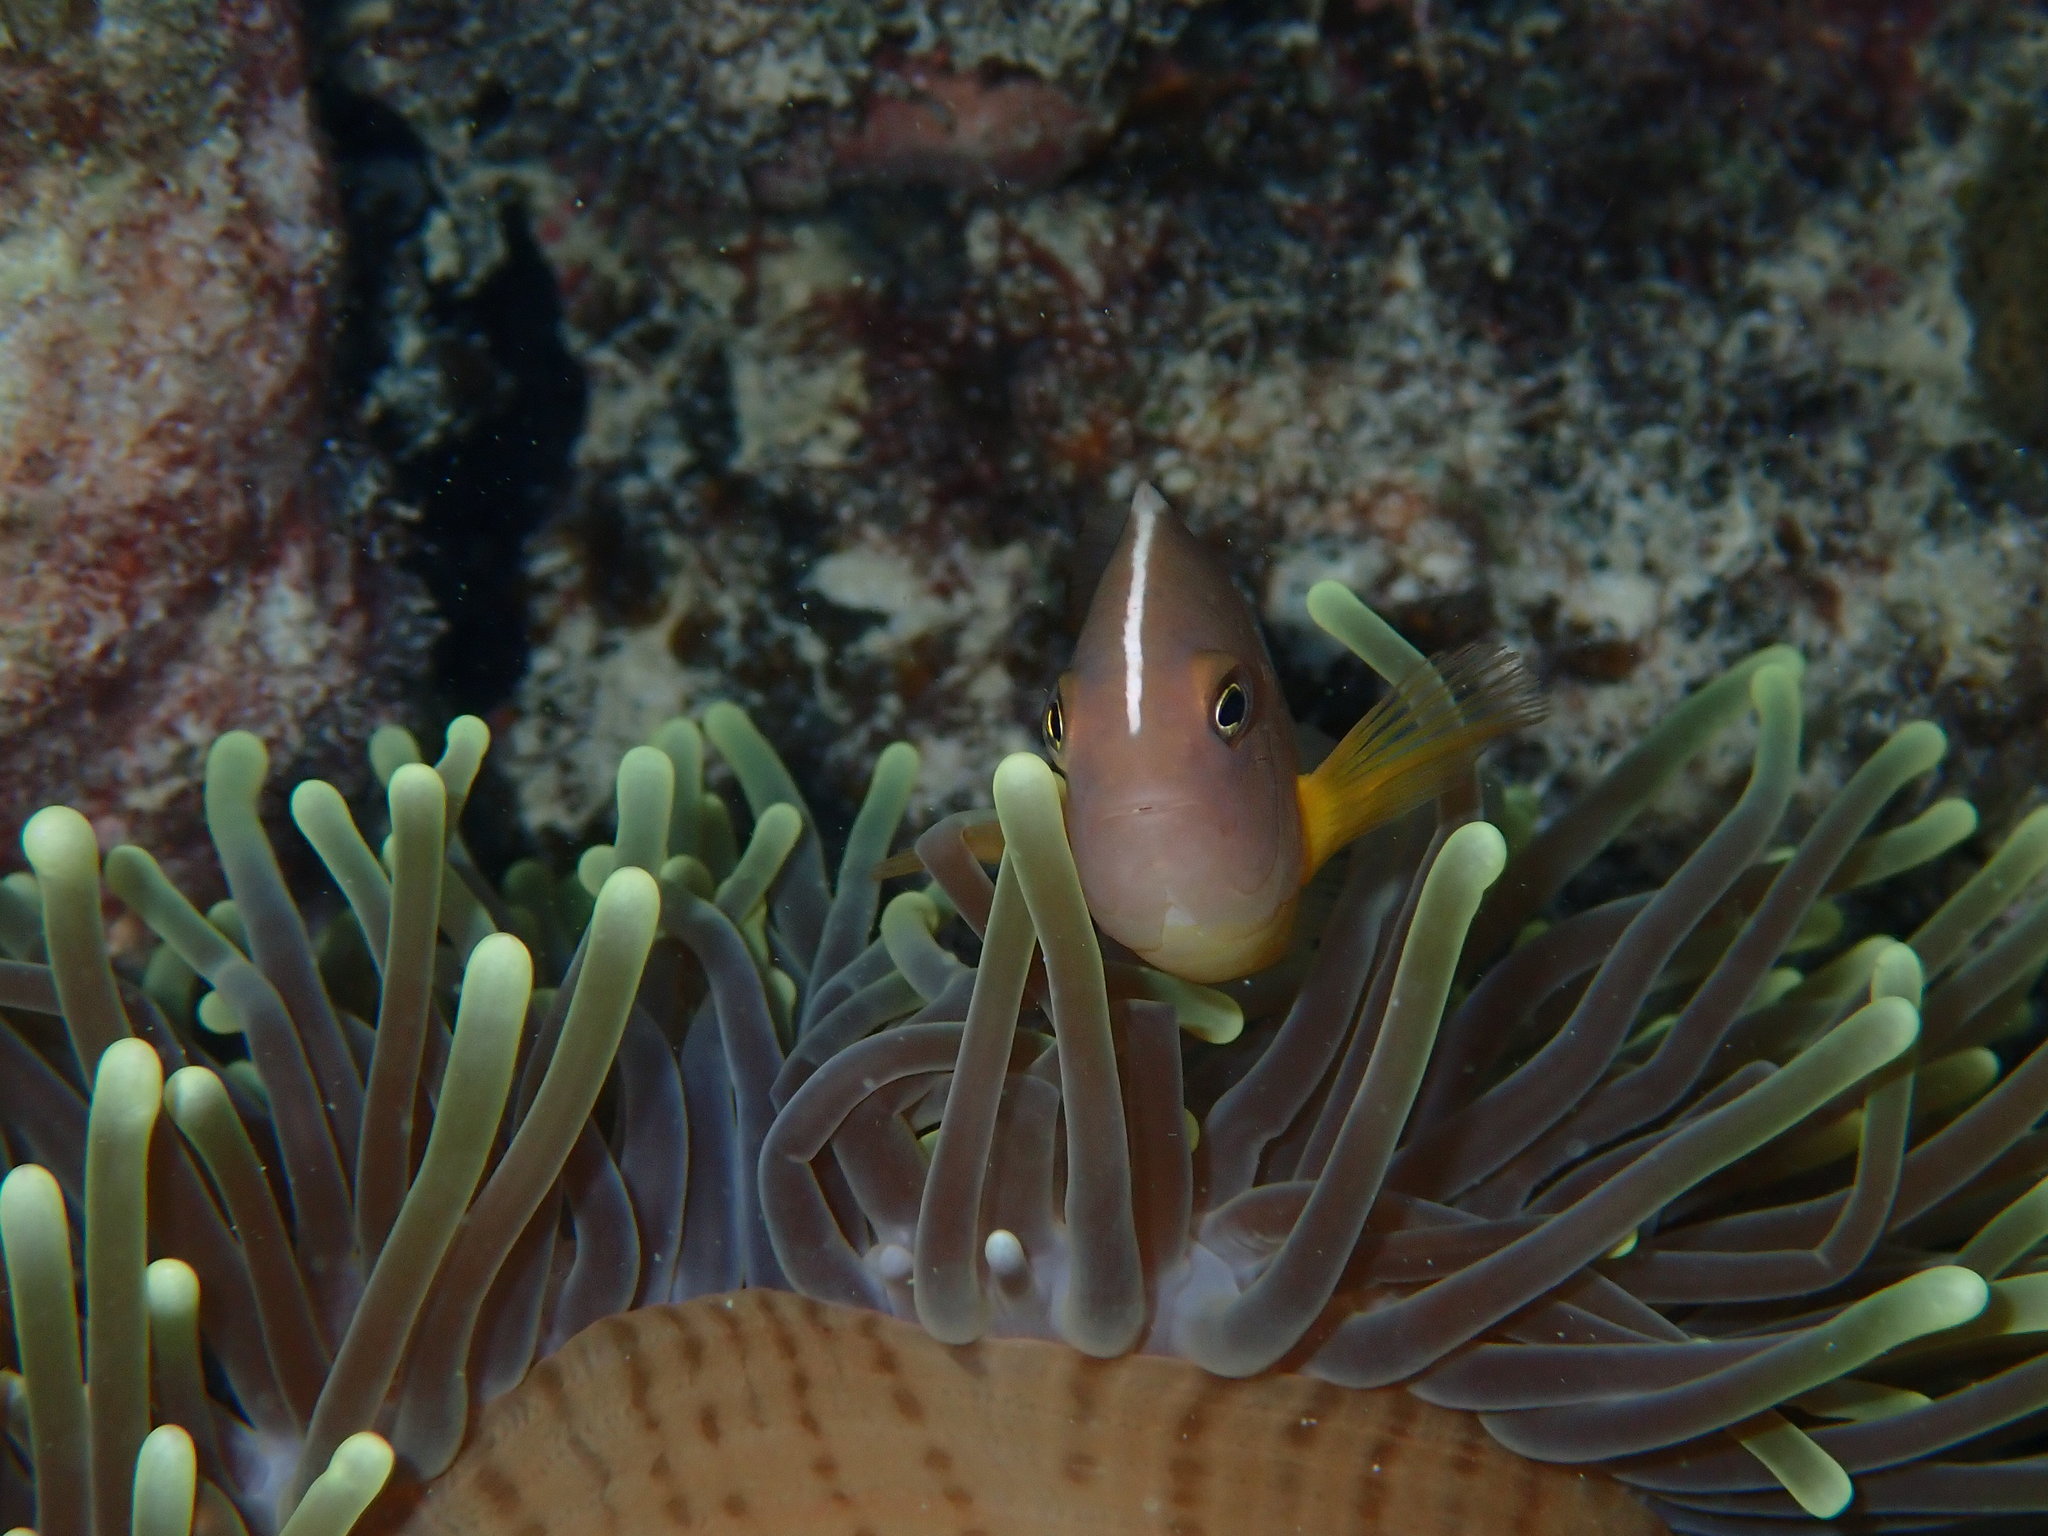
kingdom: Animalia
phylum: Chordata
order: Perciformes
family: Pomacentridae
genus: Amphiprion
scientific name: Amphiprion akallopisos
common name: Skunk clownfish
